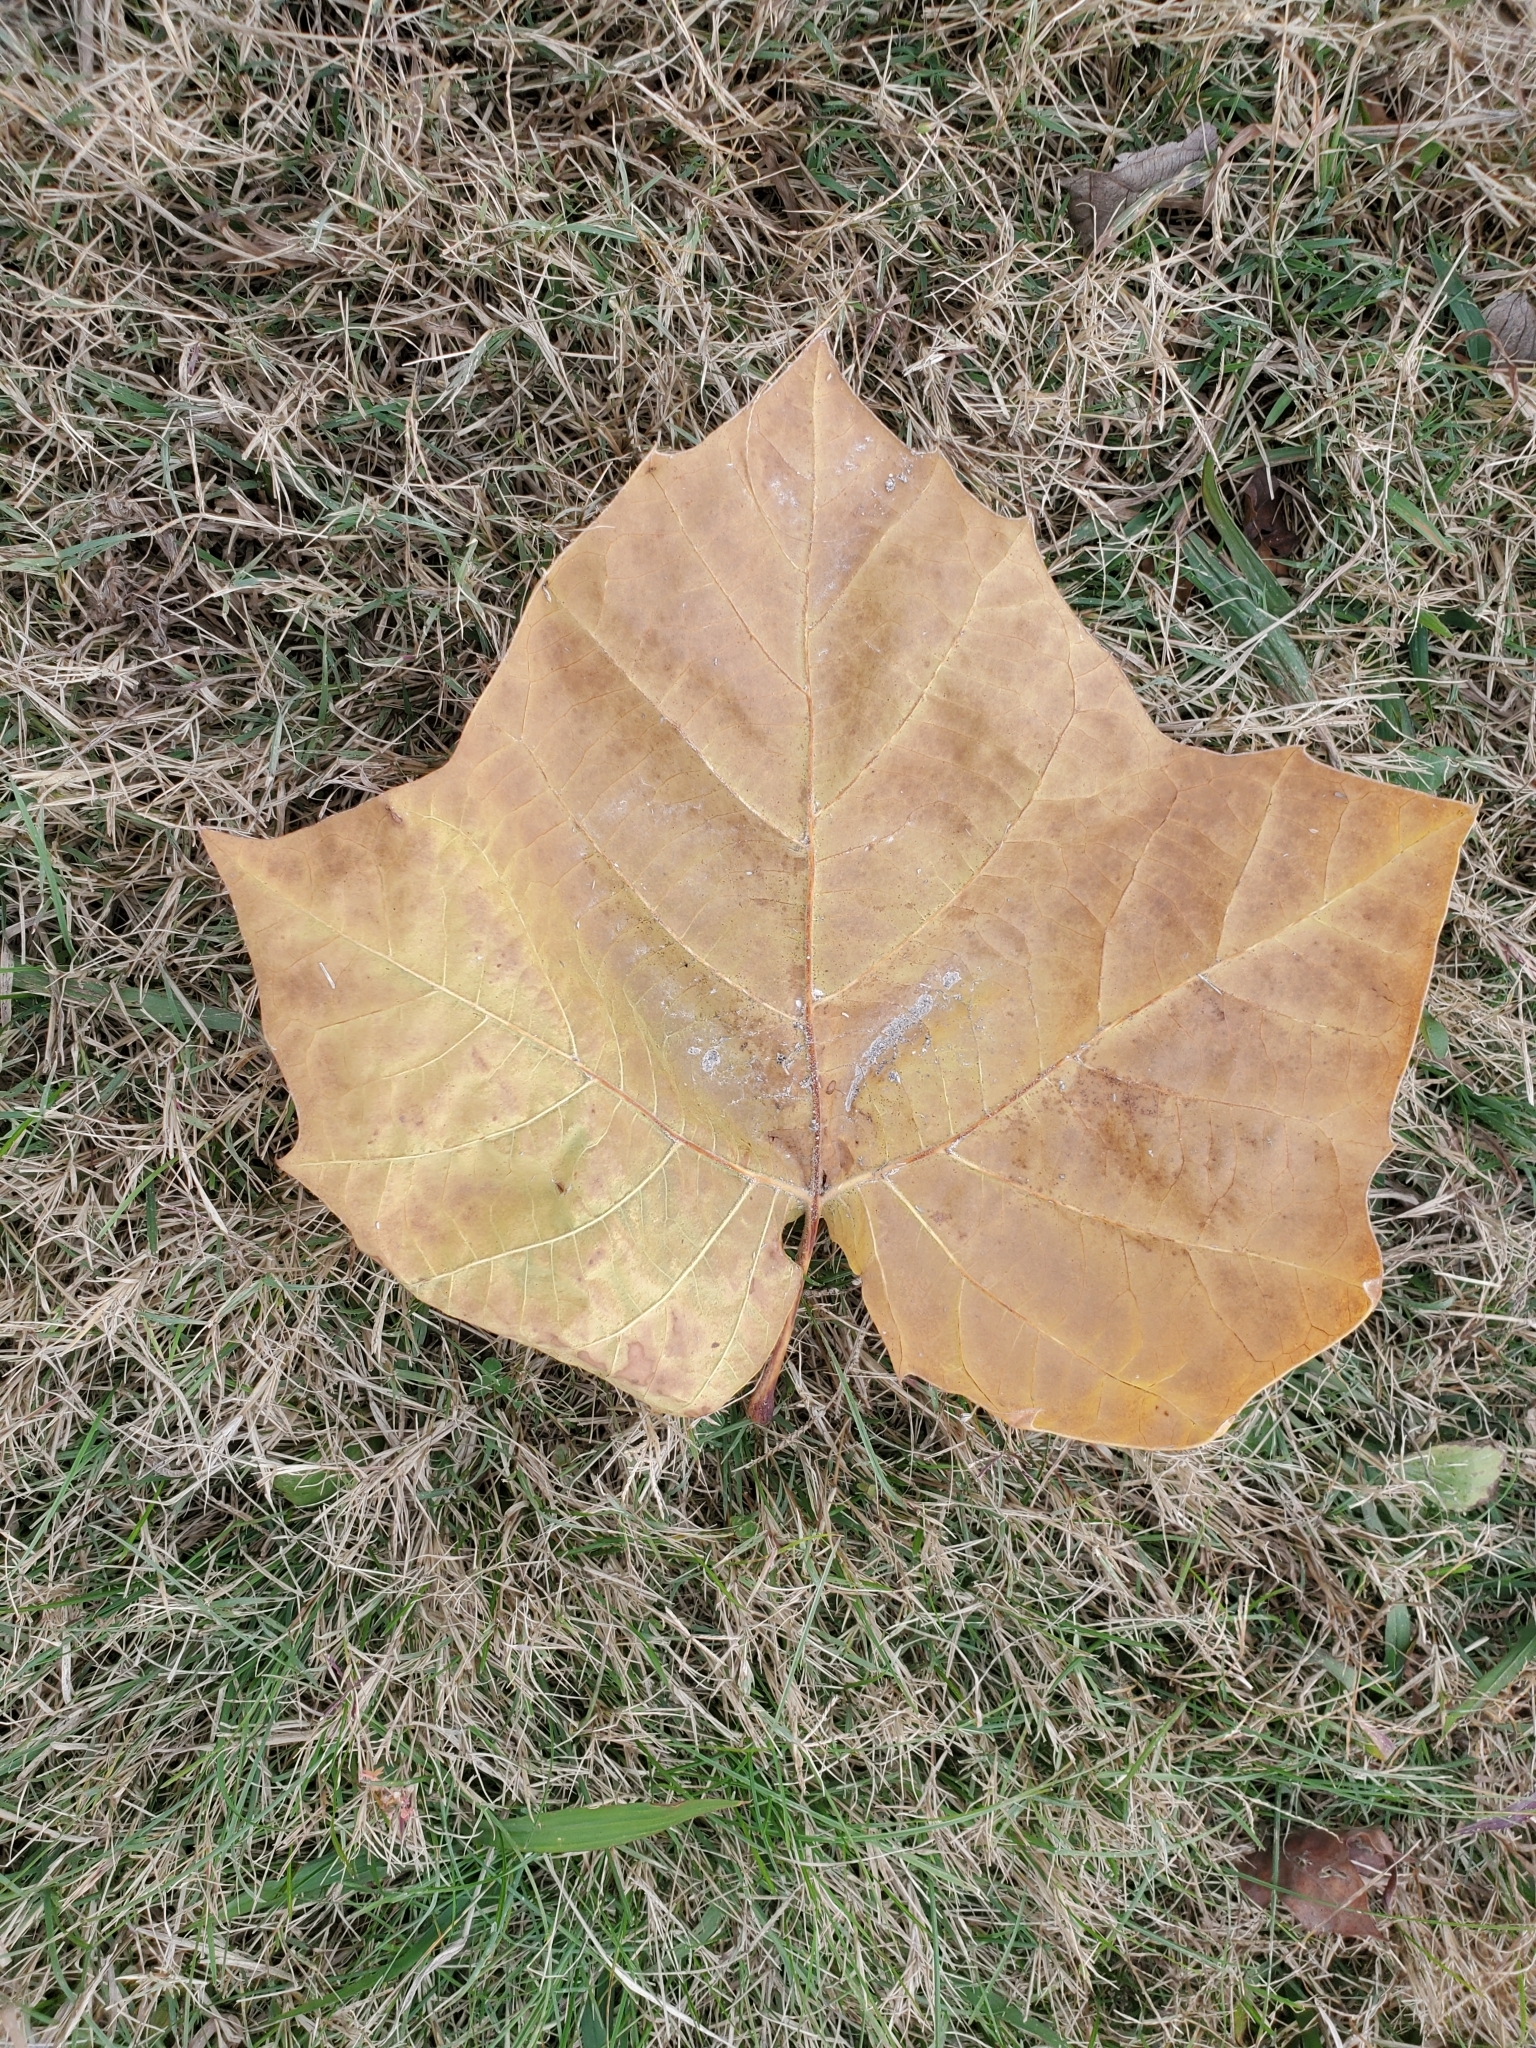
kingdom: Plantae
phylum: Tracheophyta
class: Magnoliopsida
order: Proteales
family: Platanaceae
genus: Platanus
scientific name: Platanus occidentalis
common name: American sycamore
